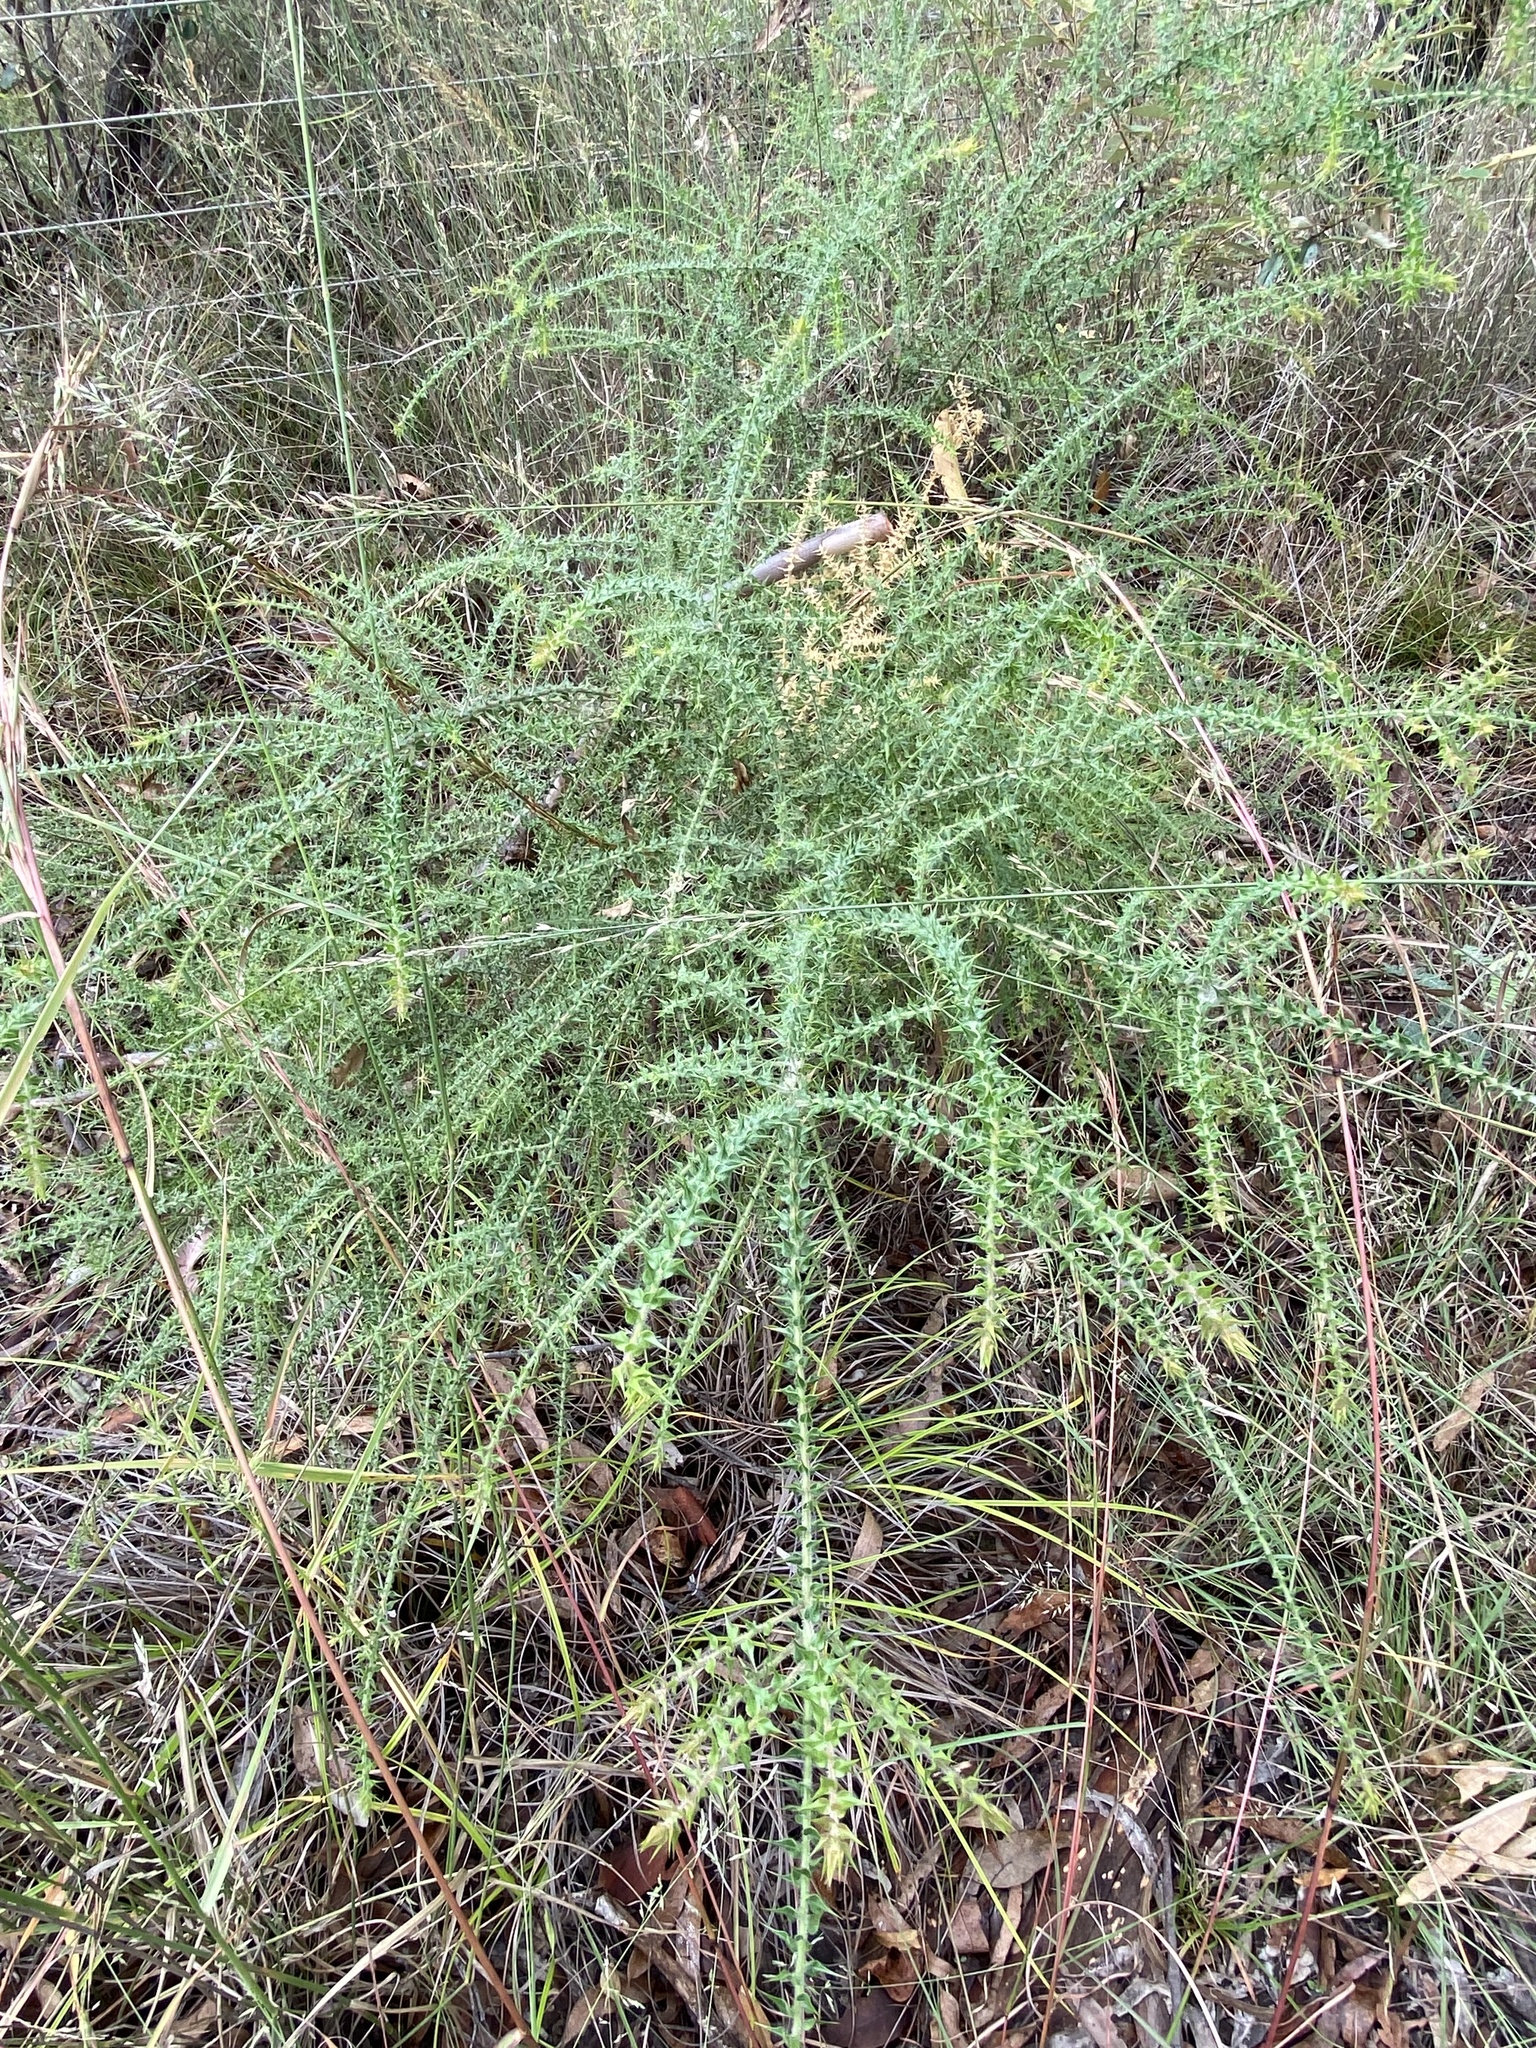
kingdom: Plantae
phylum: Tracheophyta
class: Magnoliopsida
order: Fabales
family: Fabaceae
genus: Daviesia
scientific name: Daviesia villifera
